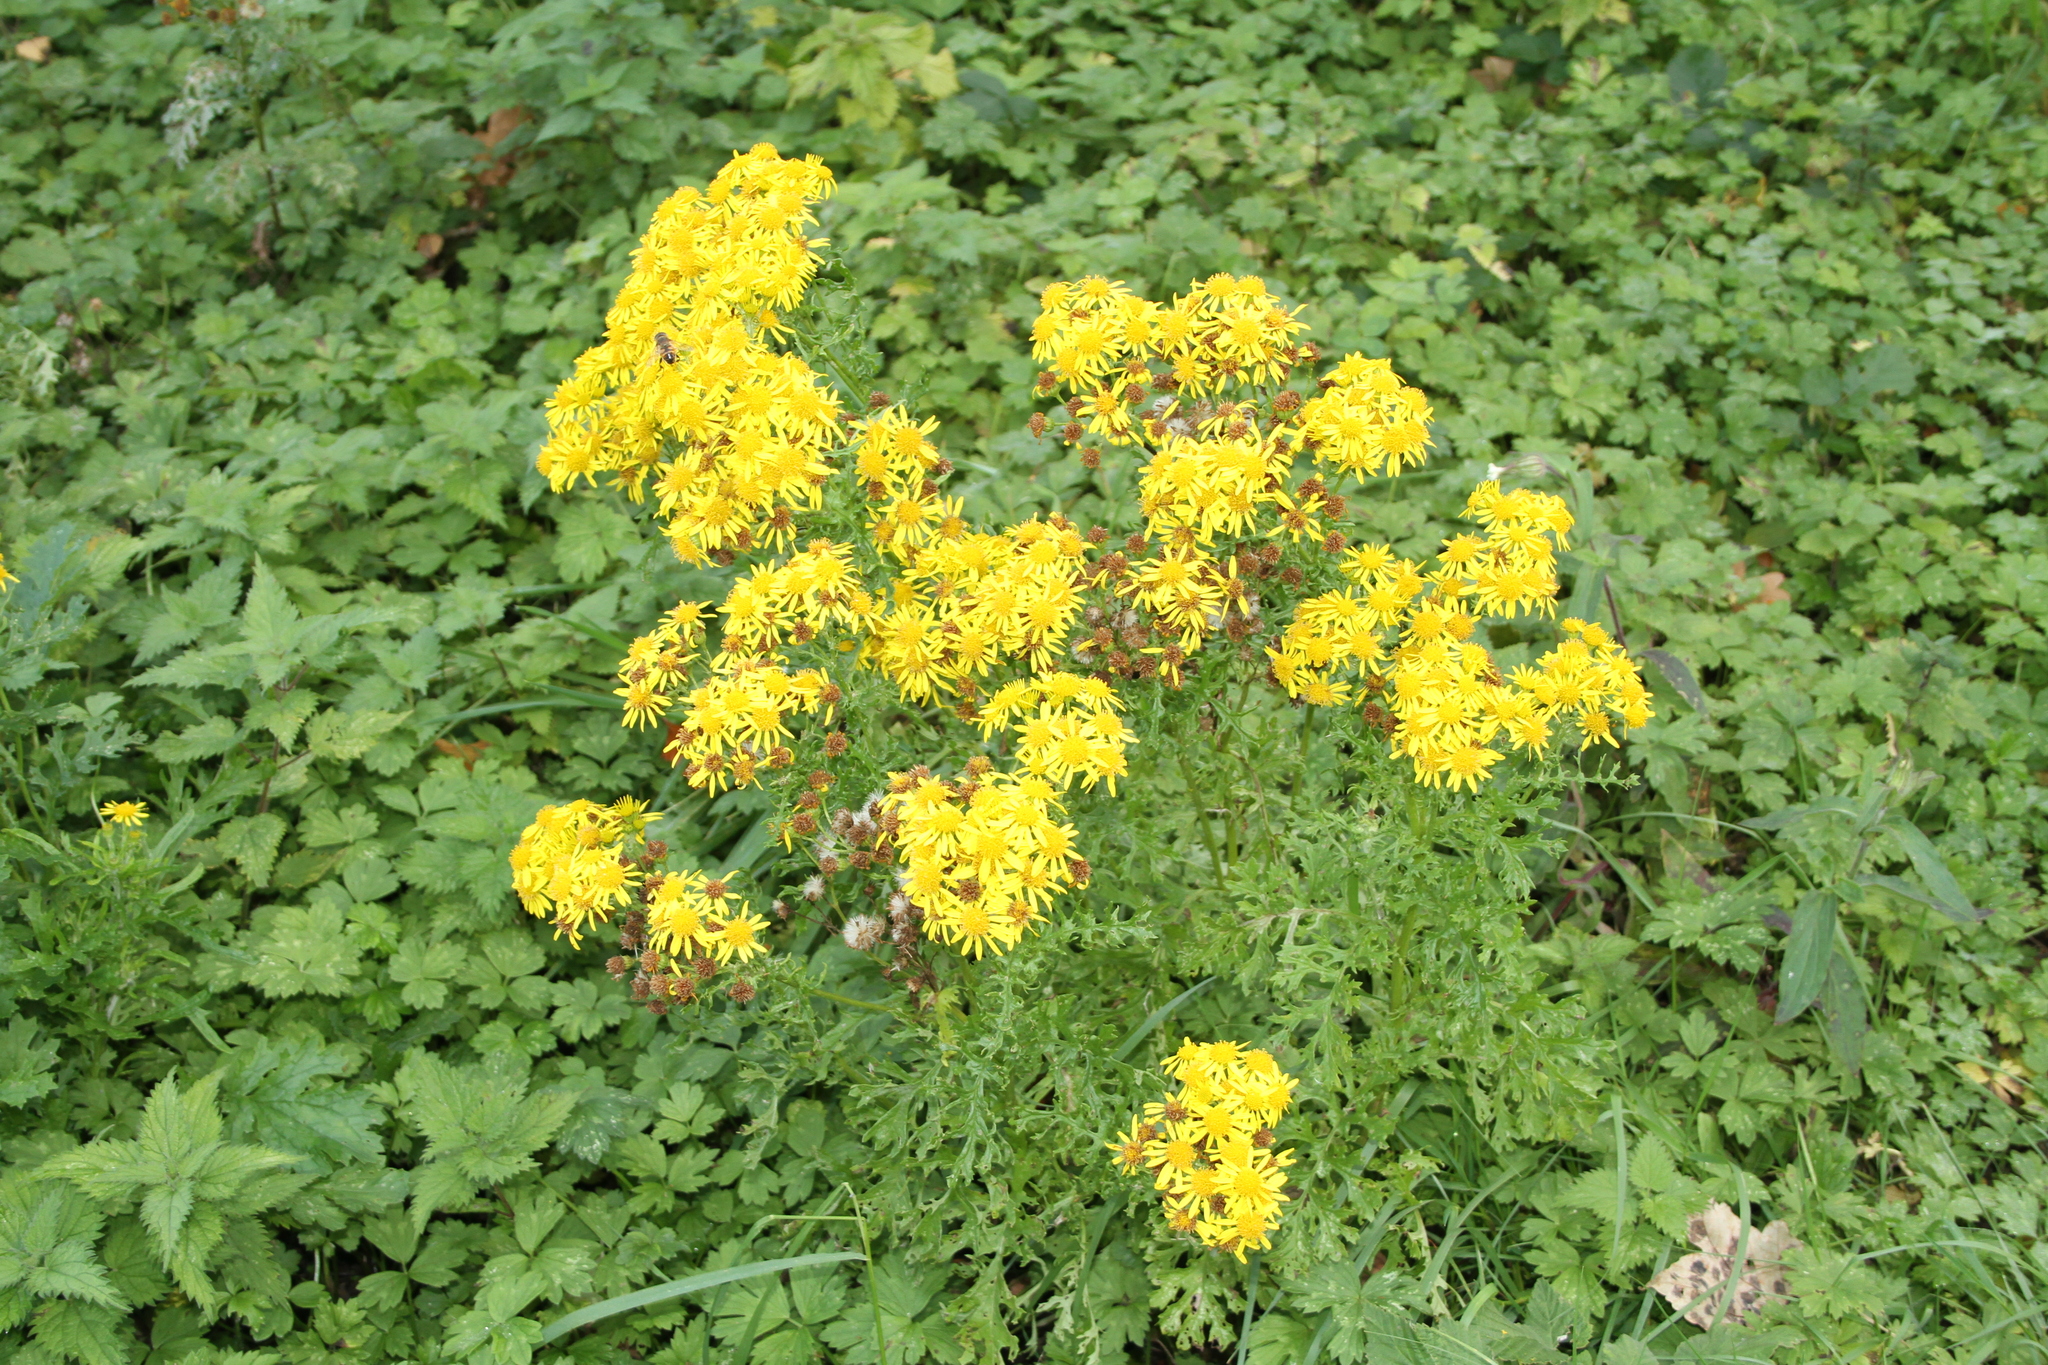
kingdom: Plantae
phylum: Tracheophyta
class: Magnoliopsida
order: Asterales
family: Asteraceae
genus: Jacobaea
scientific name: Jacobaea vulgaris
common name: Stinking willie
